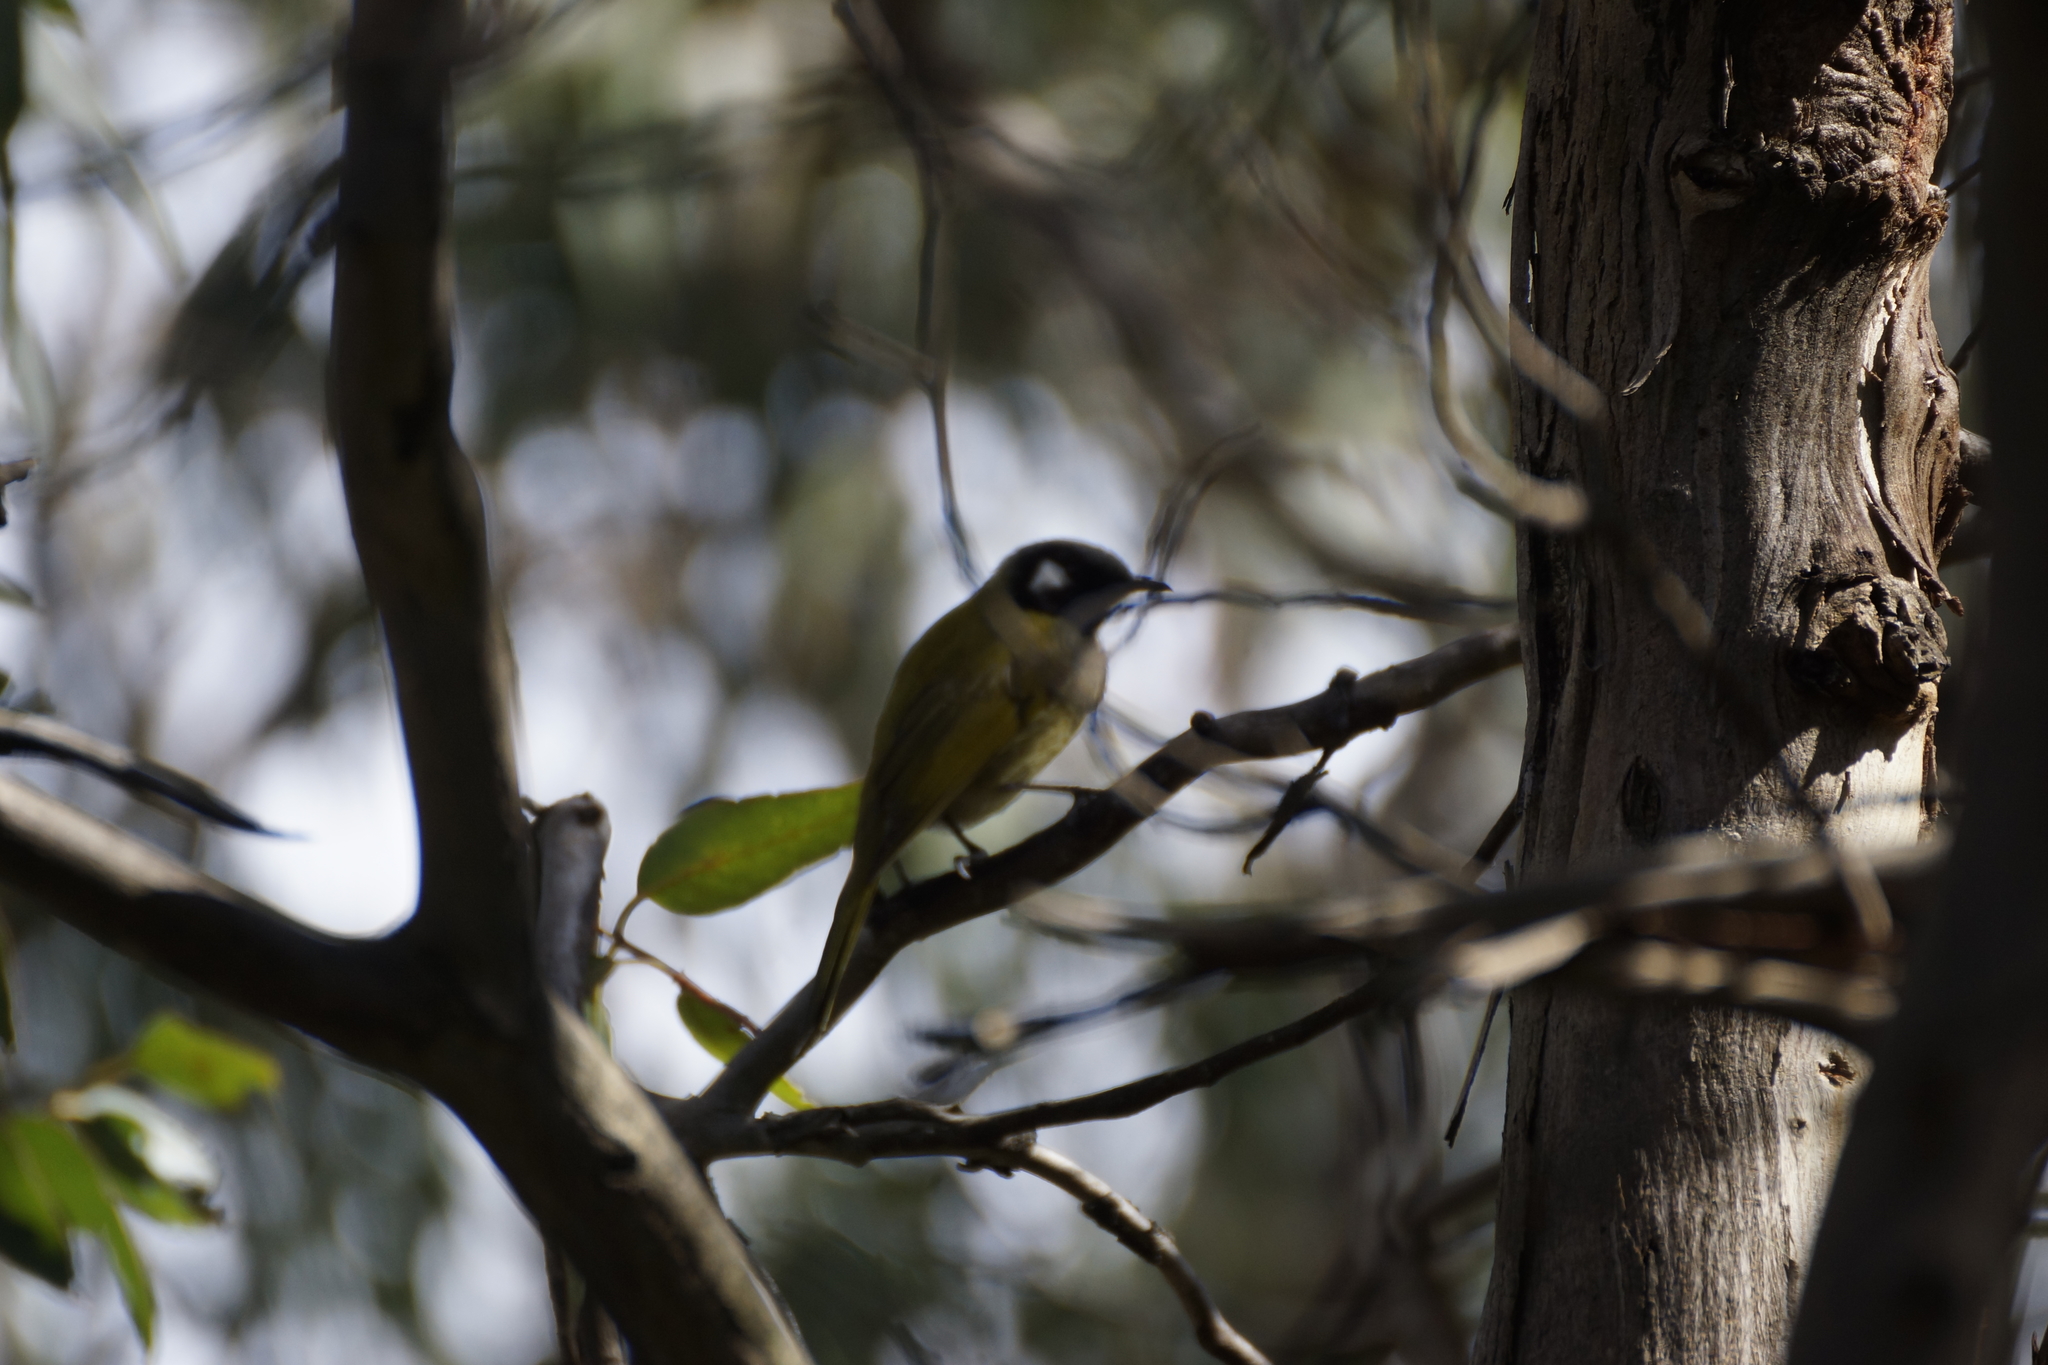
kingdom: Animalia
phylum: Chordata
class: Aves
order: Passeriformes
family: Meliphagidae
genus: Nesoptilotis
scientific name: Nesoptilotis leucotis
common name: White-eared honeyeater
